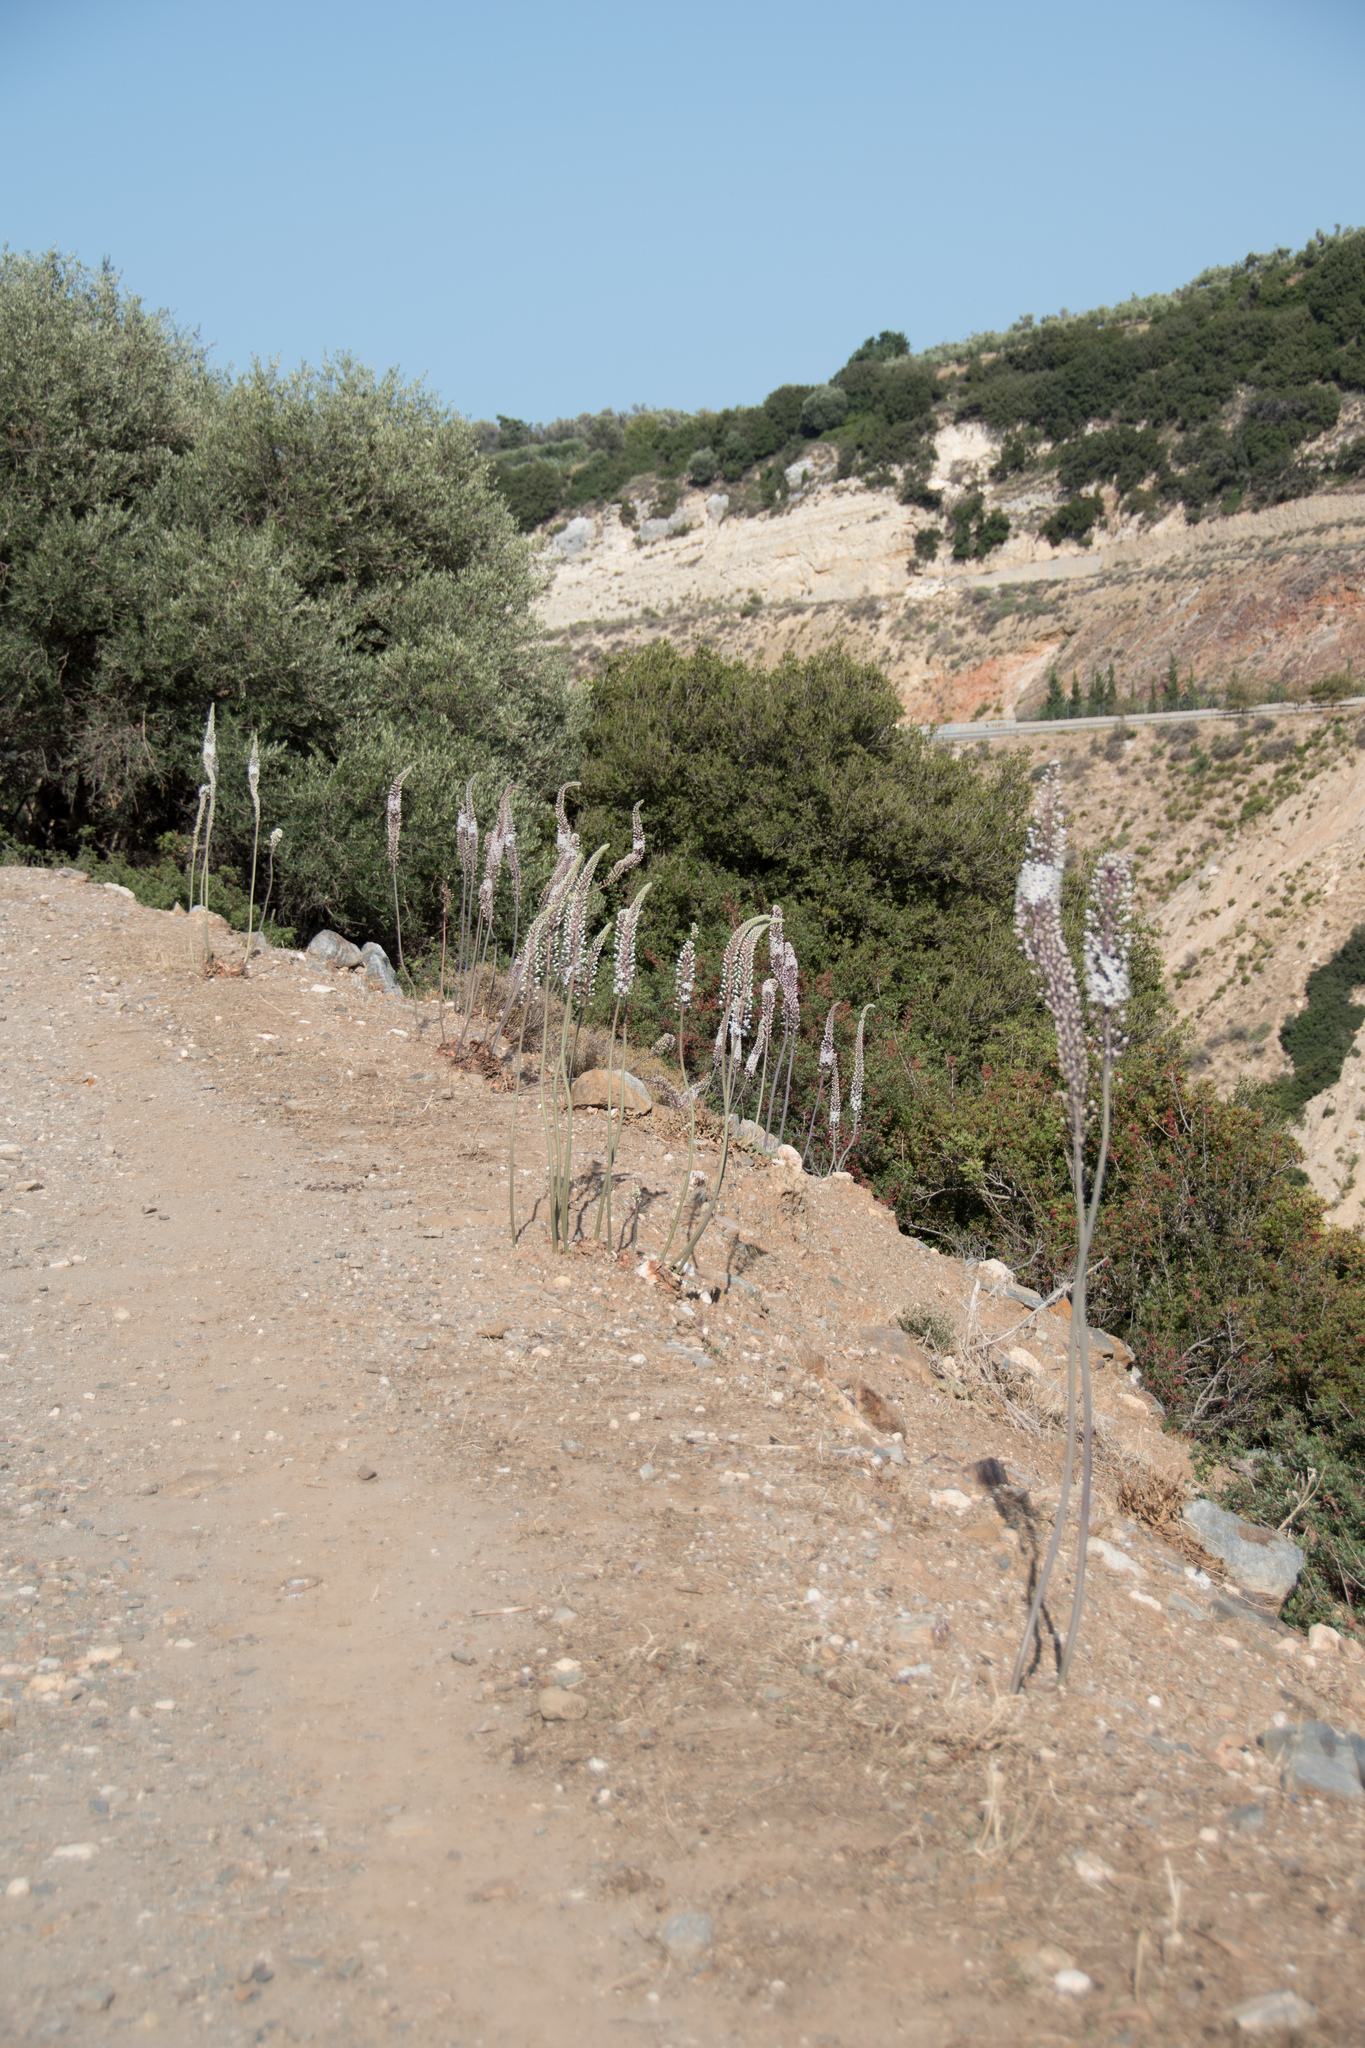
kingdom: Plantae
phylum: Tracheophyta
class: Liliopsida
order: Asparagales
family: Asparagaceae
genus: Drimia
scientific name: Drimia numidica
